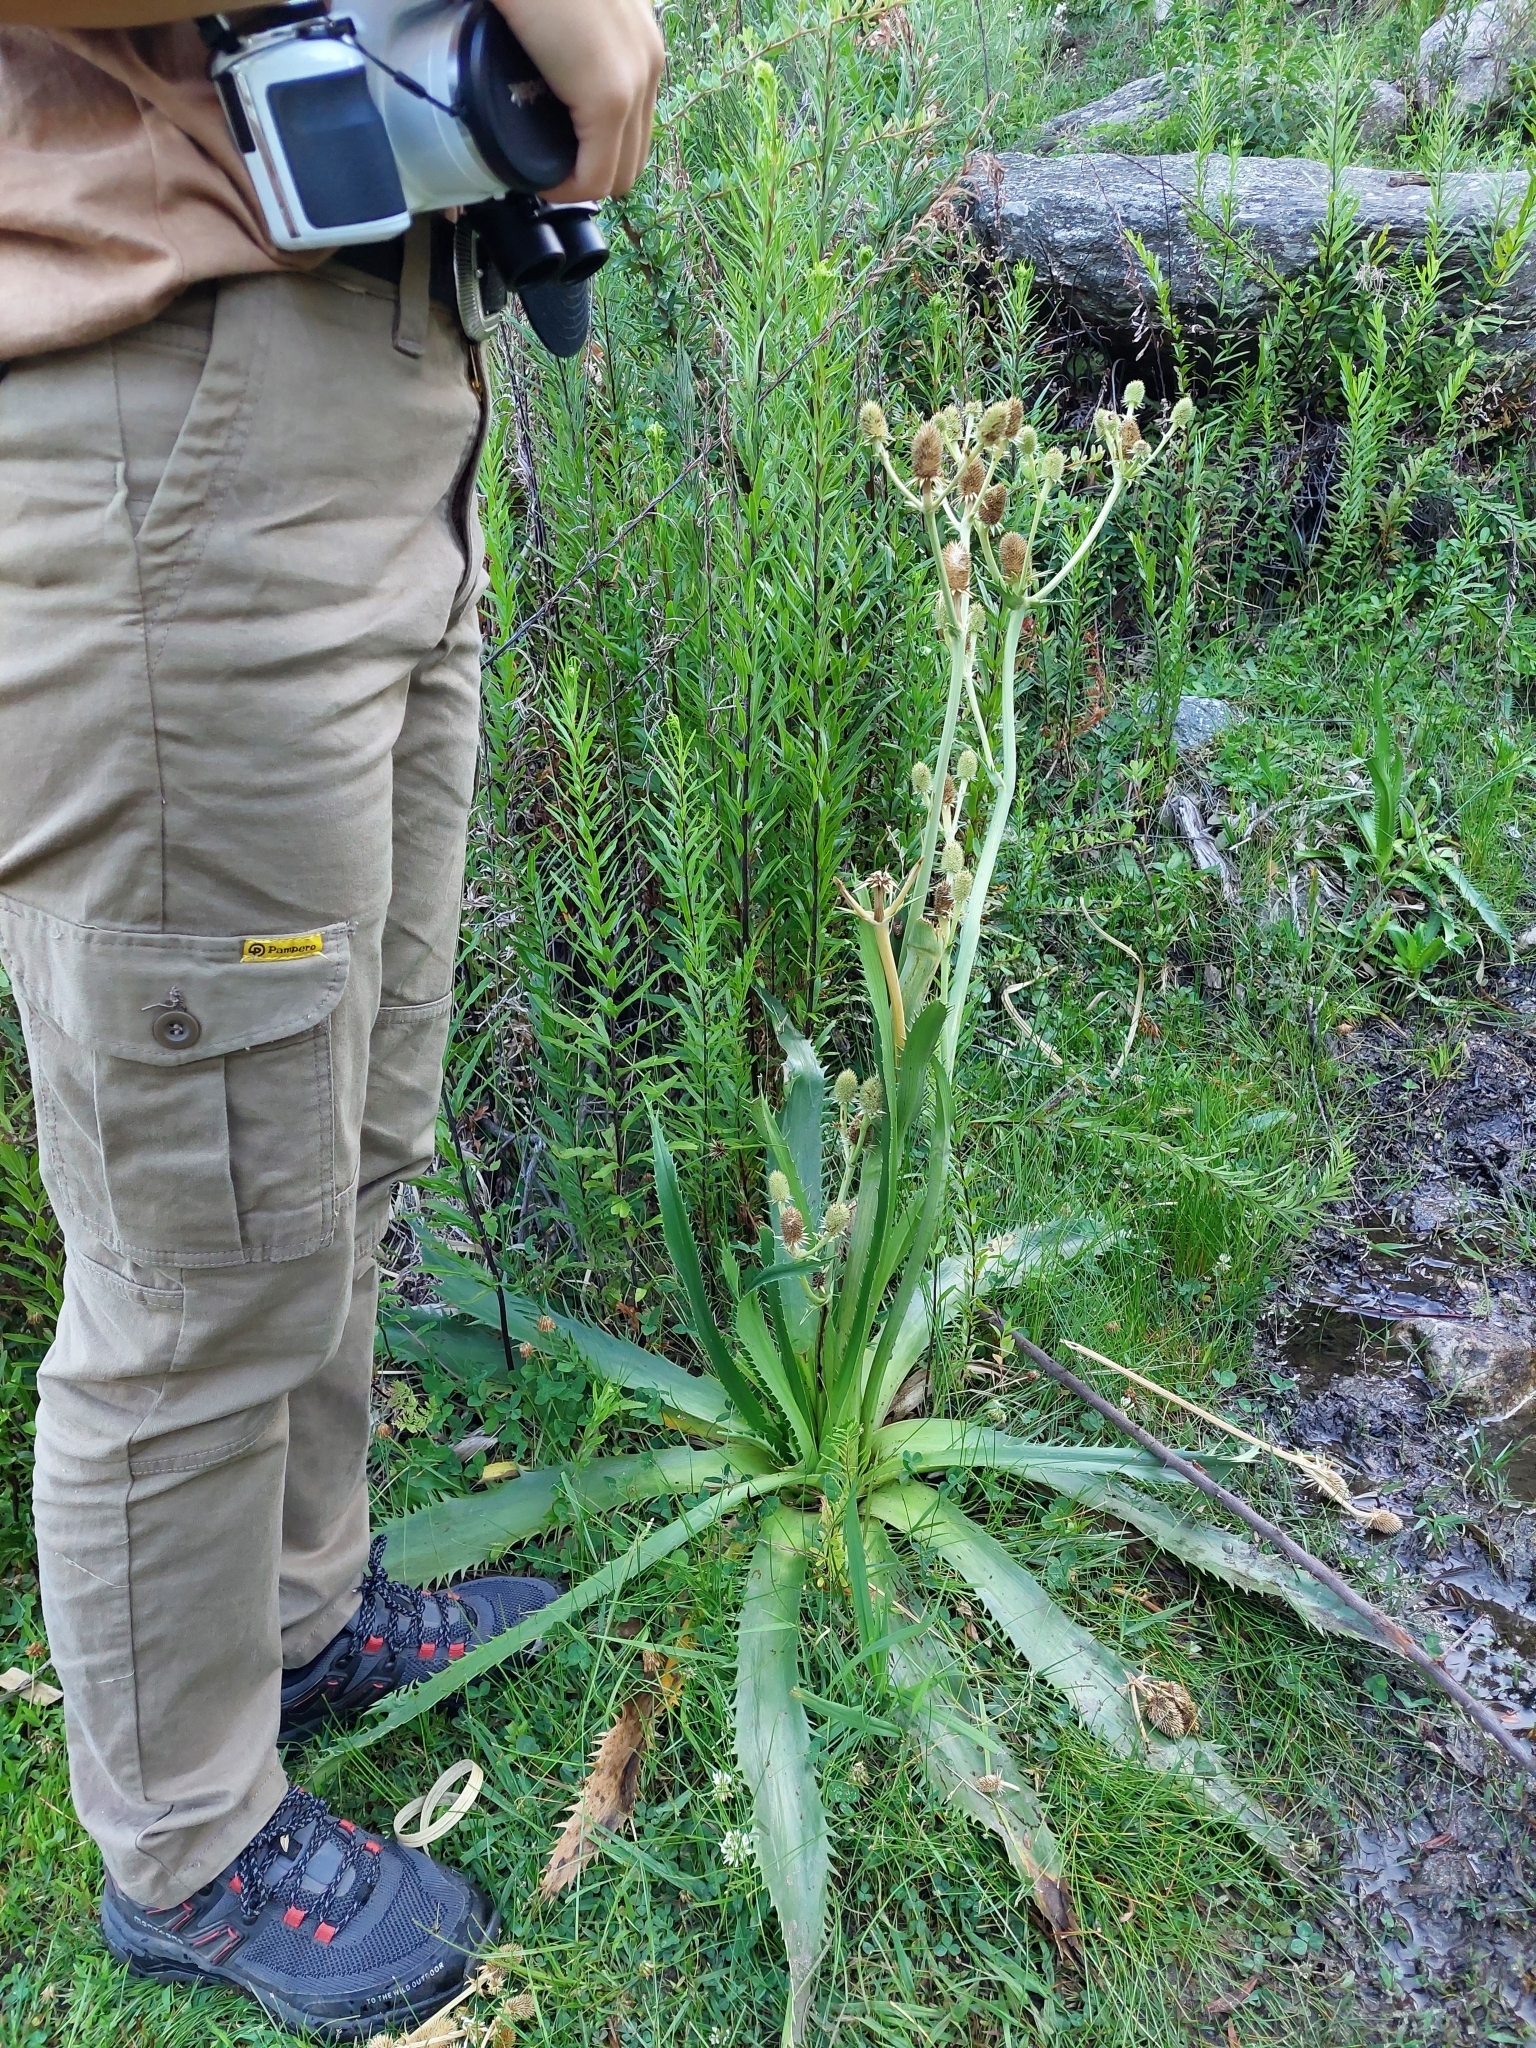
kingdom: Plantae
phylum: Tracheophyta
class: Magnoliopsida
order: Apiales
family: Apiaceae
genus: Eryngium
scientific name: Eryngium elegans
